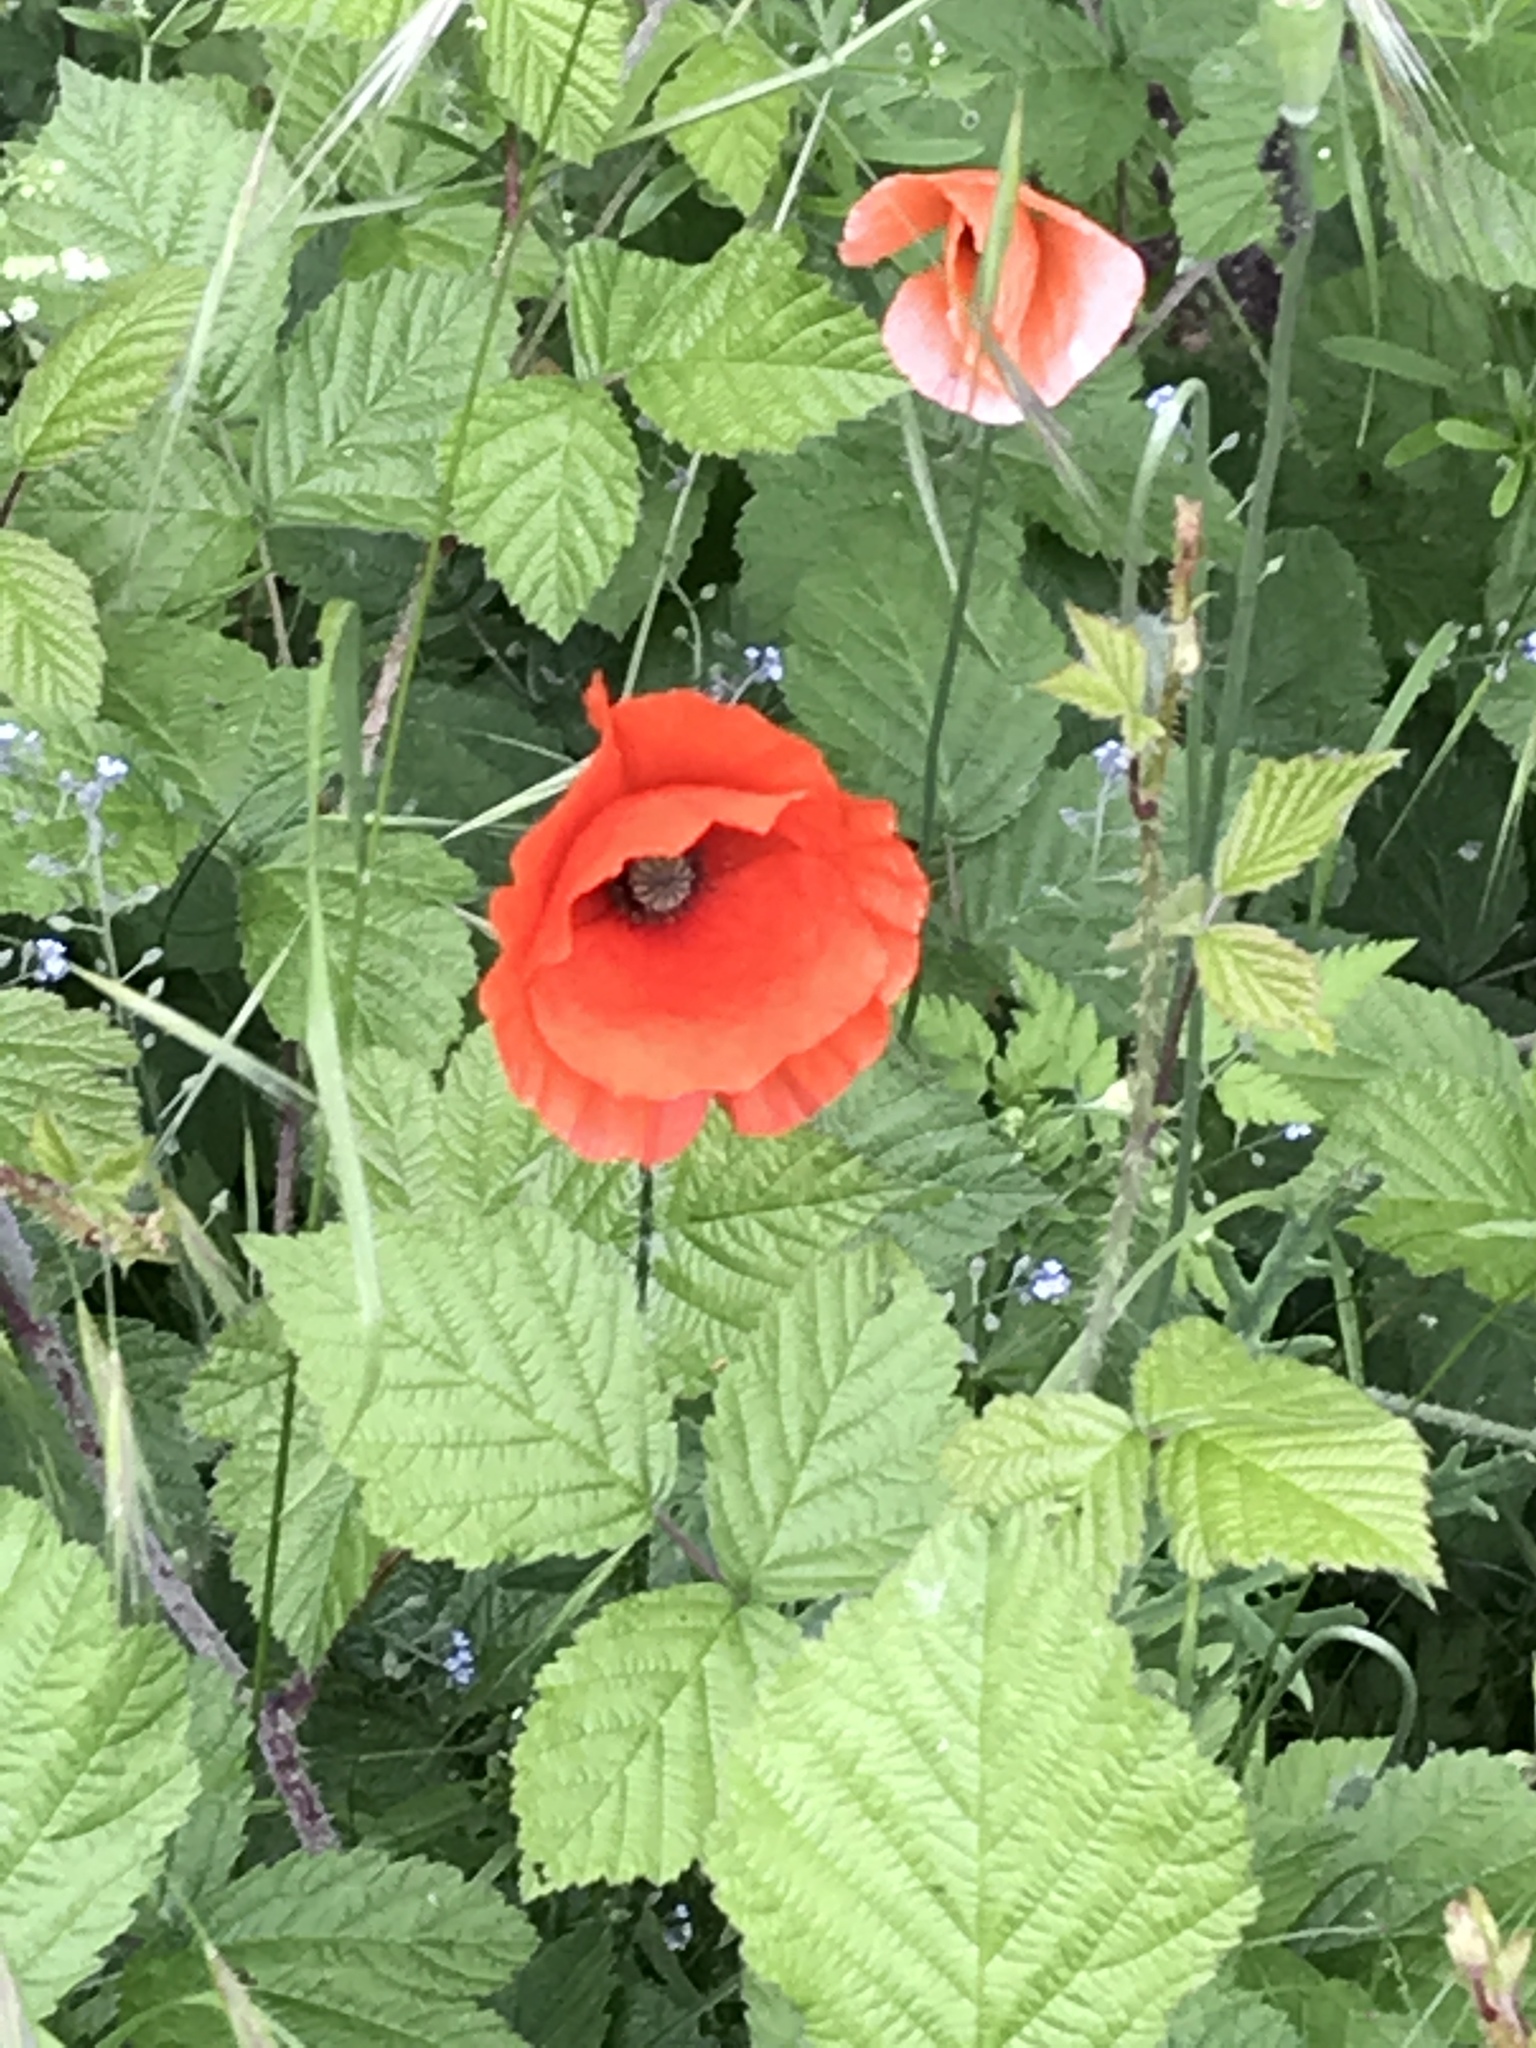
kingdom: Plantae
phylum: Tracheophyta
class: Magnoliopsida
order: Ranunculales
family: Papaveraceae
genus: Papaver
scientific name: Papaver rhoeas
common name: Corn poppy
